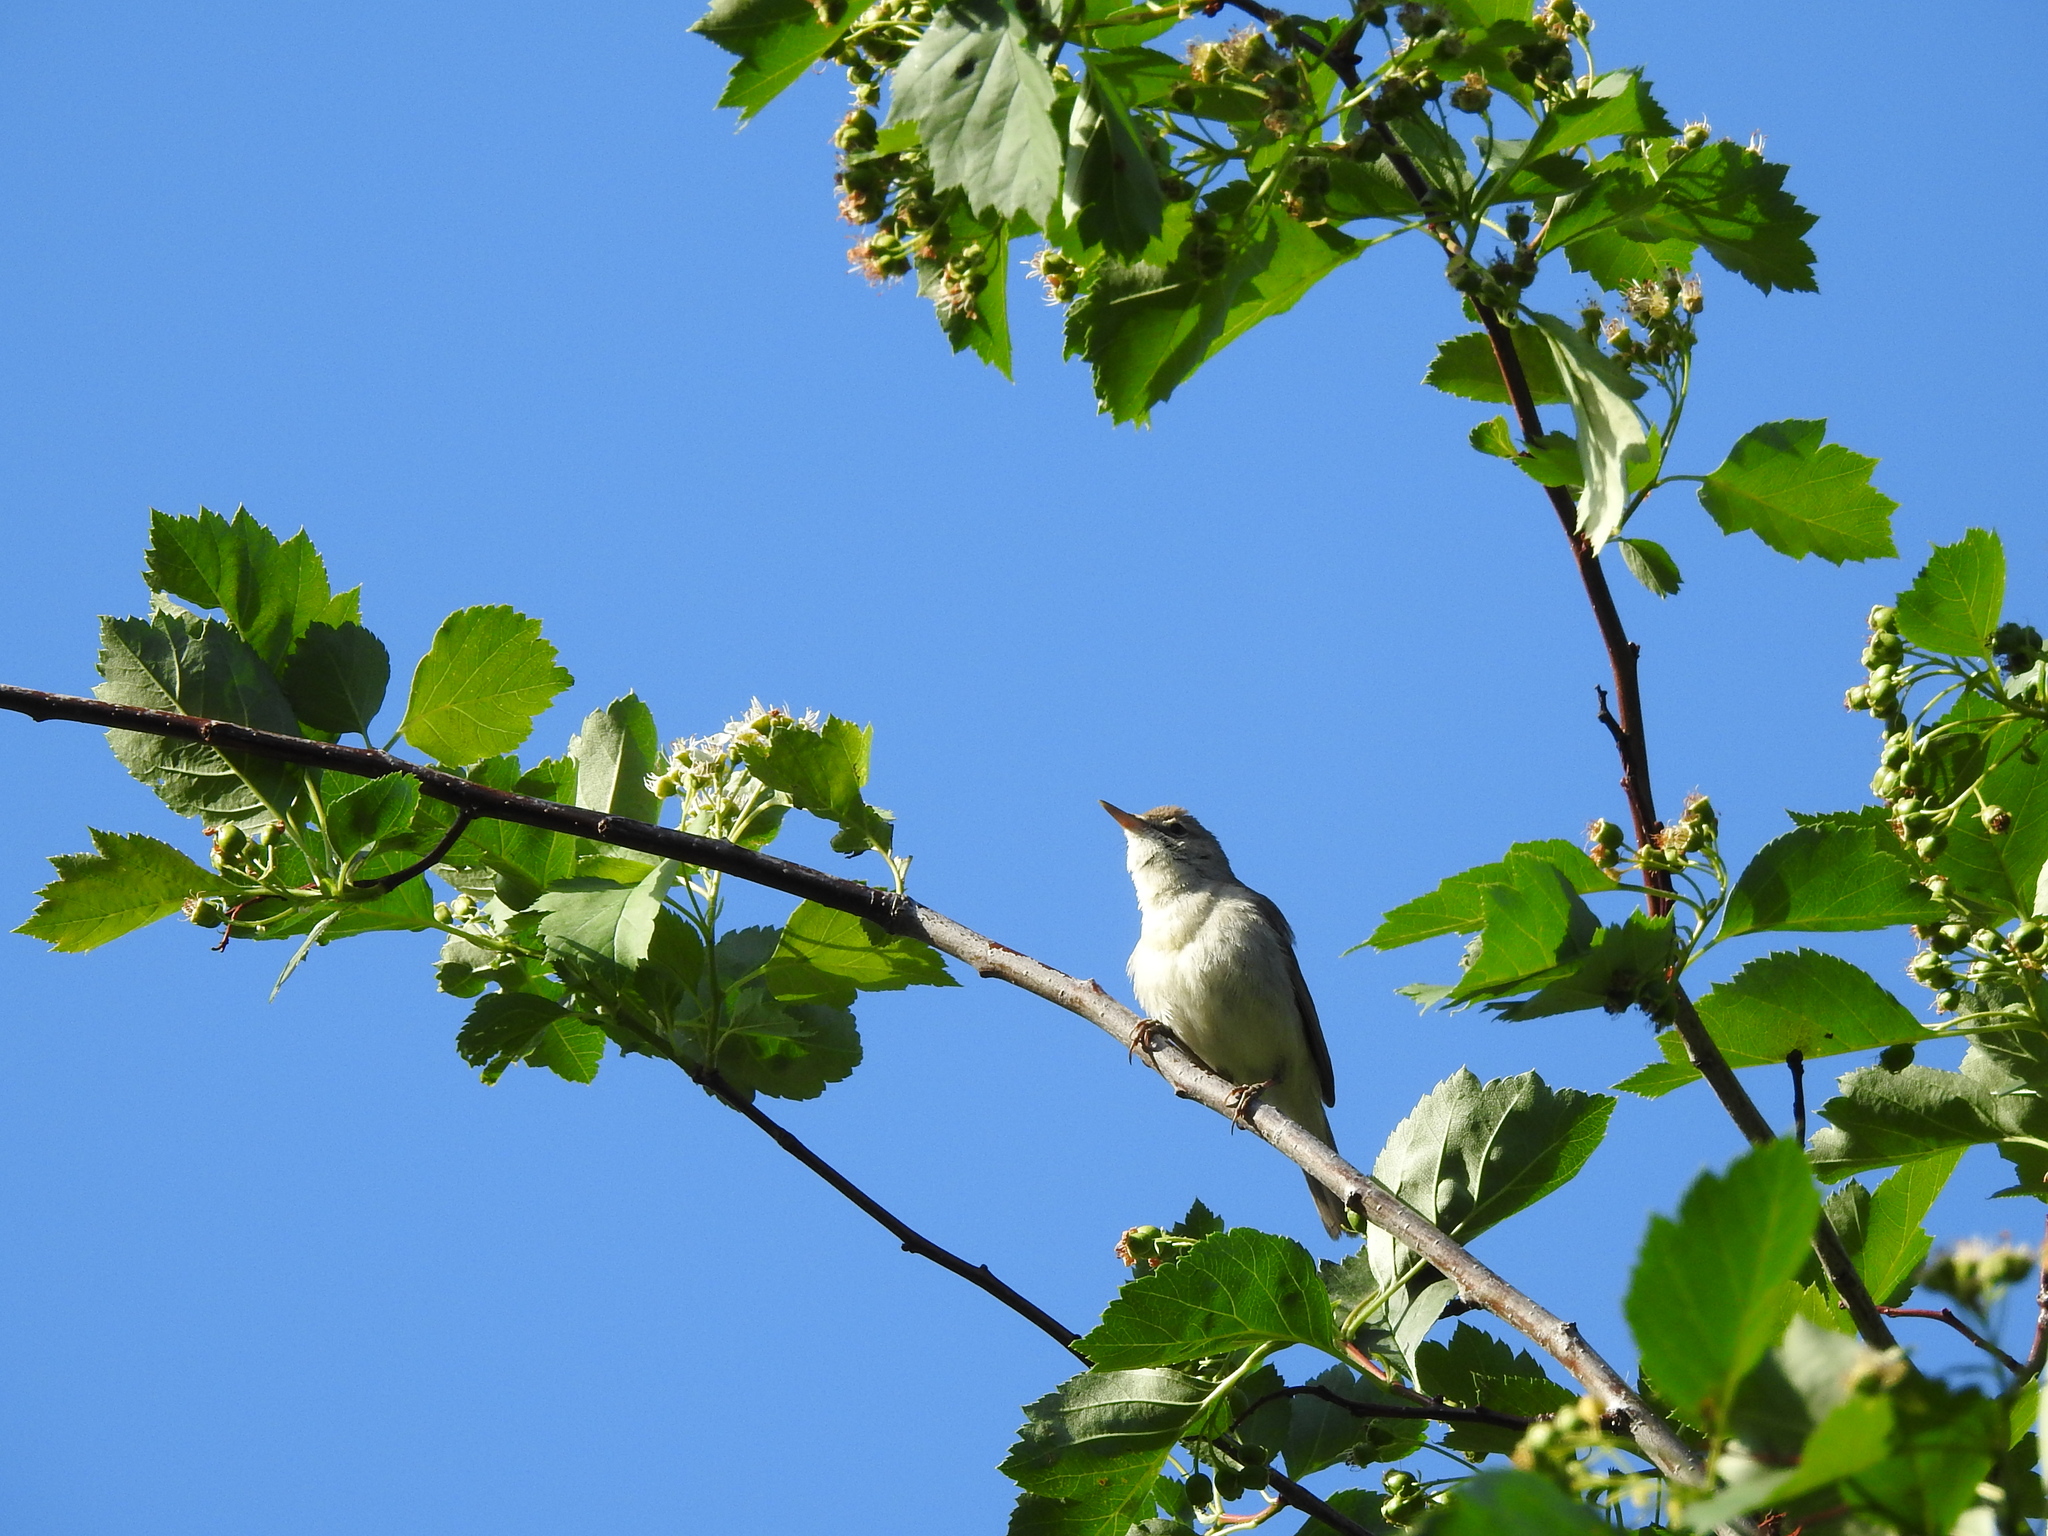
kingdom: Animalia
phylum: Chordata
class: Aves
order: Passeriformes
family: Acrocephalidae
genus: Acrocephalus
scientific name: Acrocephalus dumetorum
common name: Blyth's reed warbler
